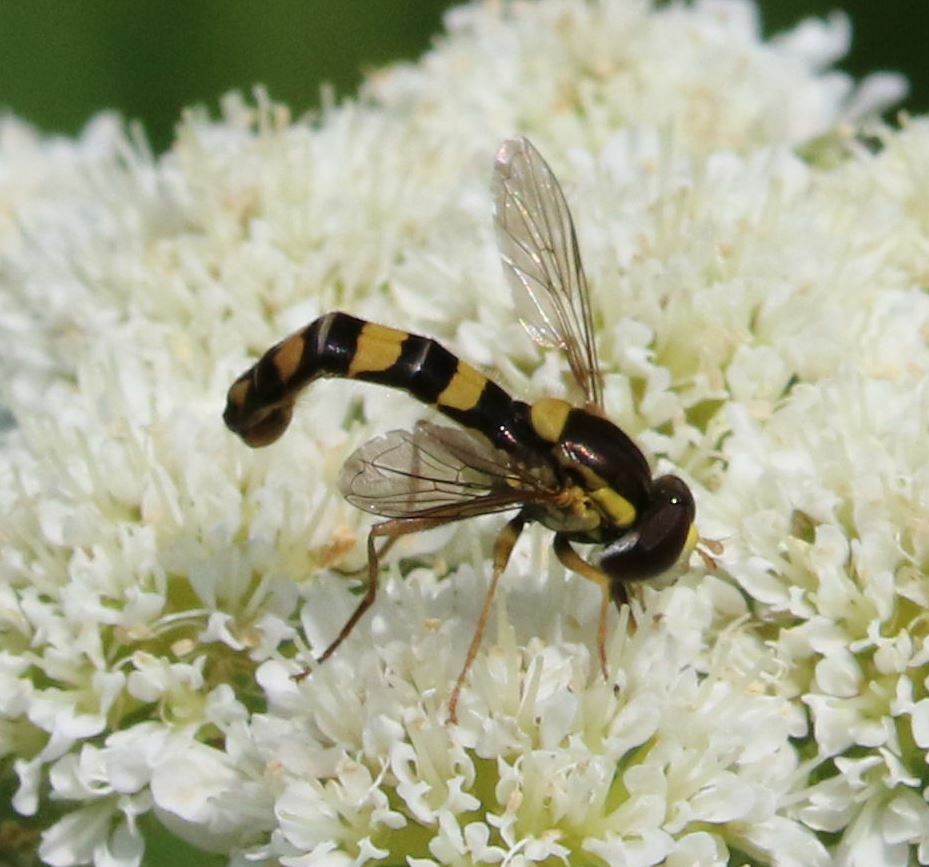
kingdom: Animalia
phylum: Arthropoda
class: Insecta
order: Diptera
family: Syrphidae
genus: Sphaerophoria
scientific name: Sphaerophoria scripta
